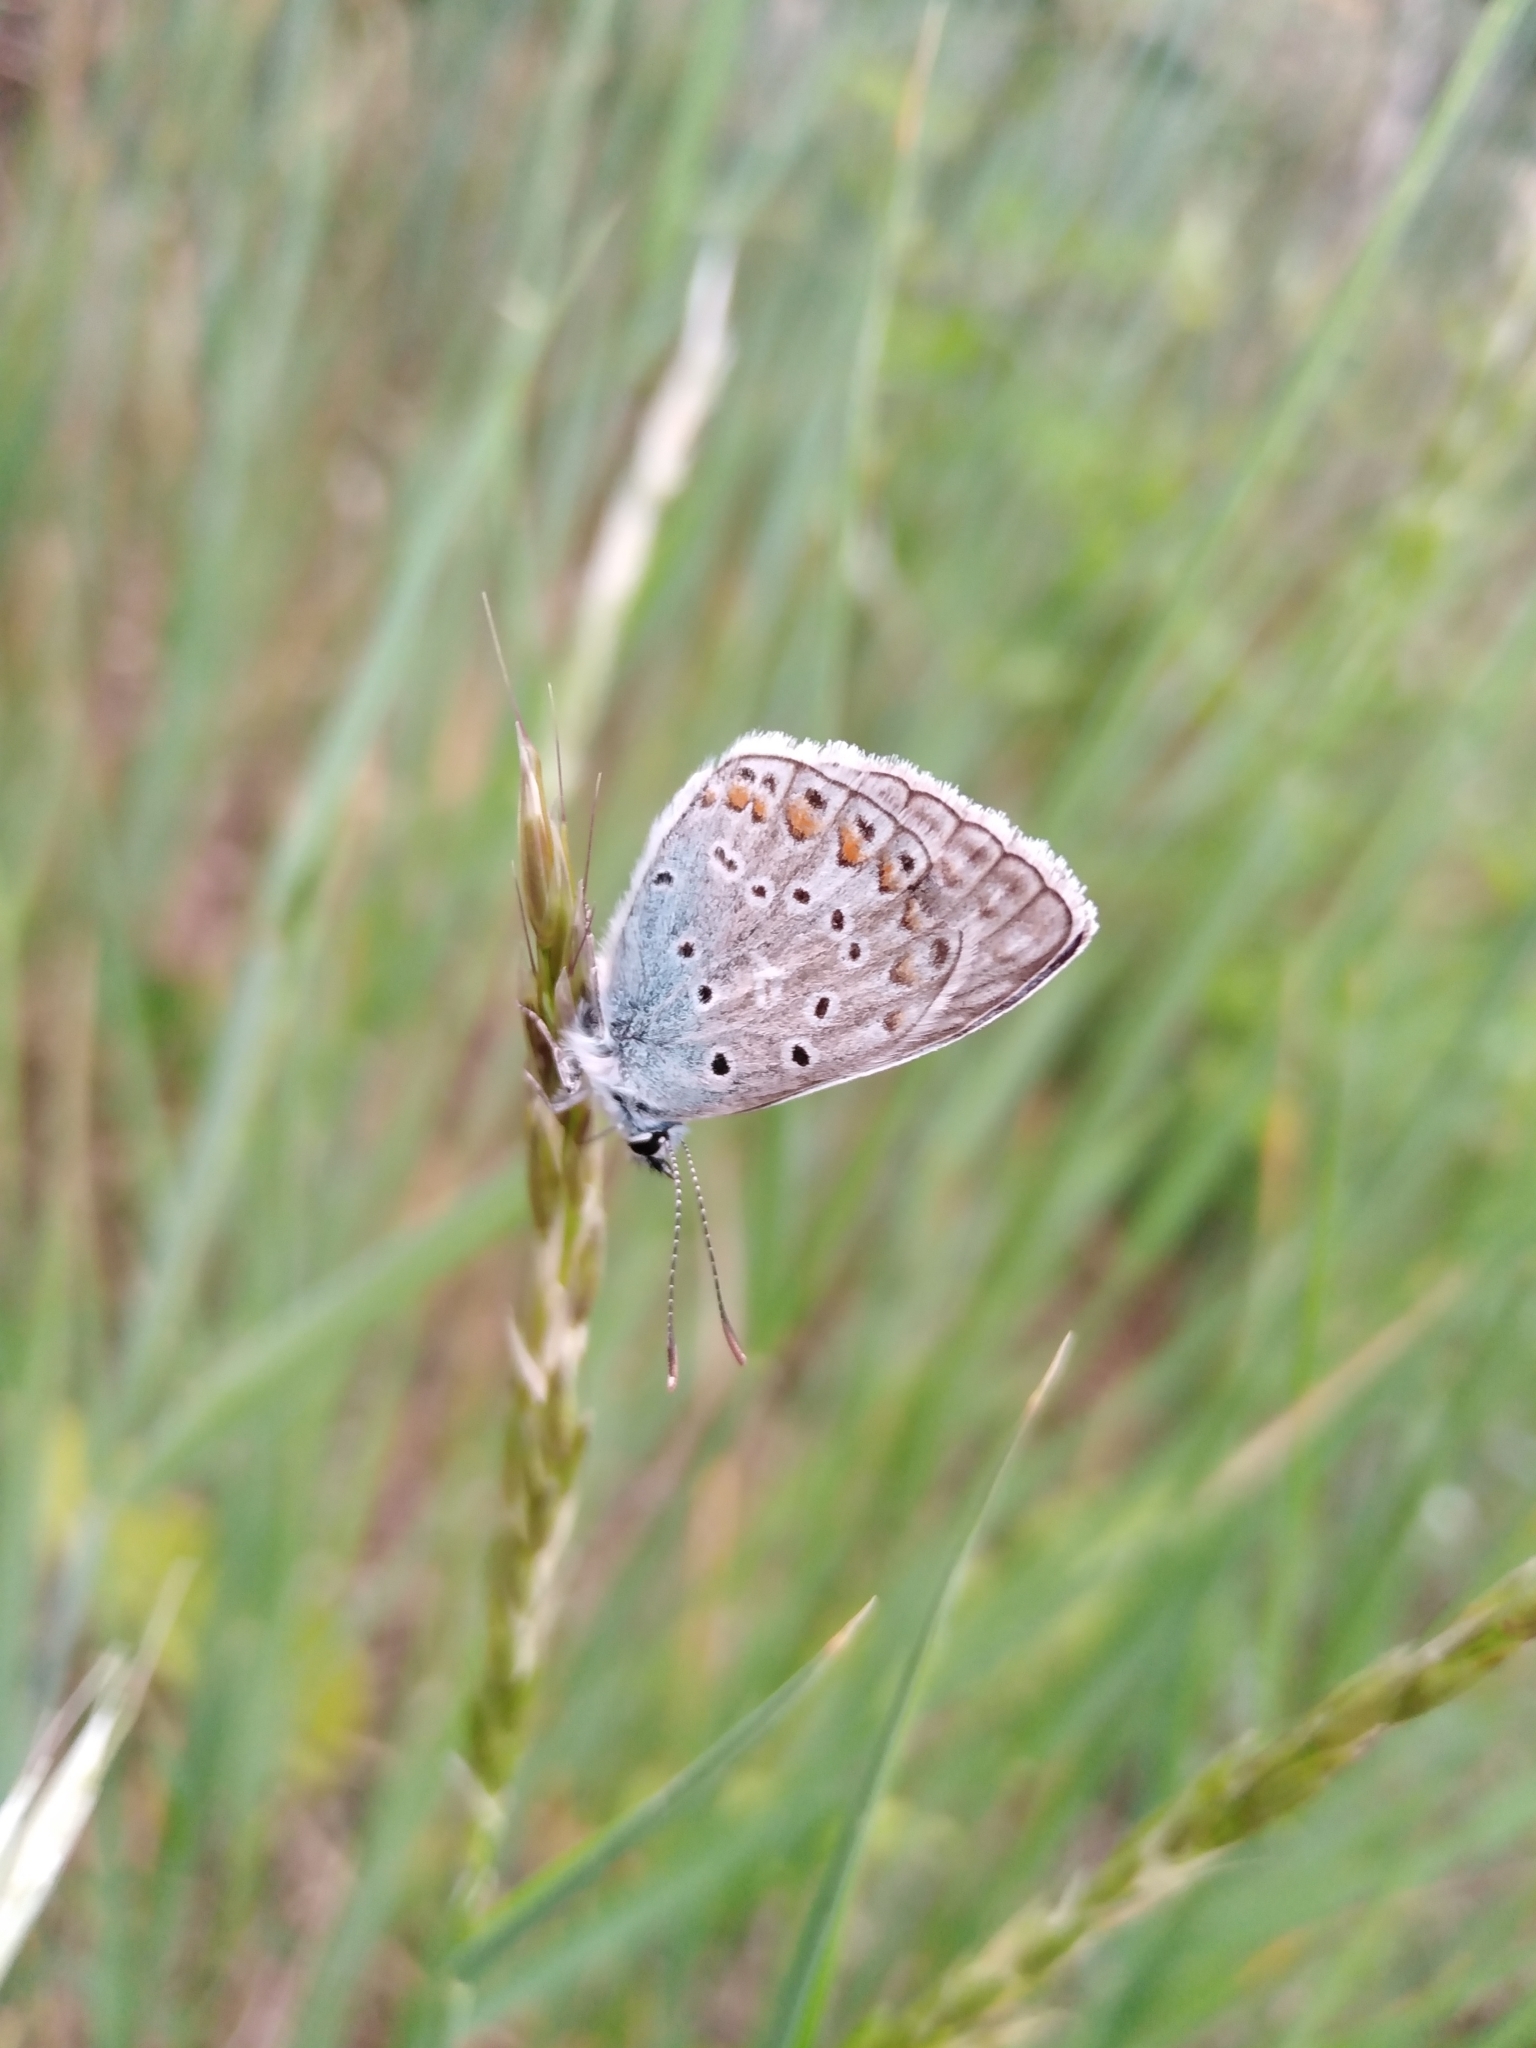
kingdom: Animalia
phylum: Arthropoda
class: Insecta
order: Lepidoptera
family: Lycaenidae
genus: Polyommatus
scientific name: Polyommatus icarus
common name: Common blue
